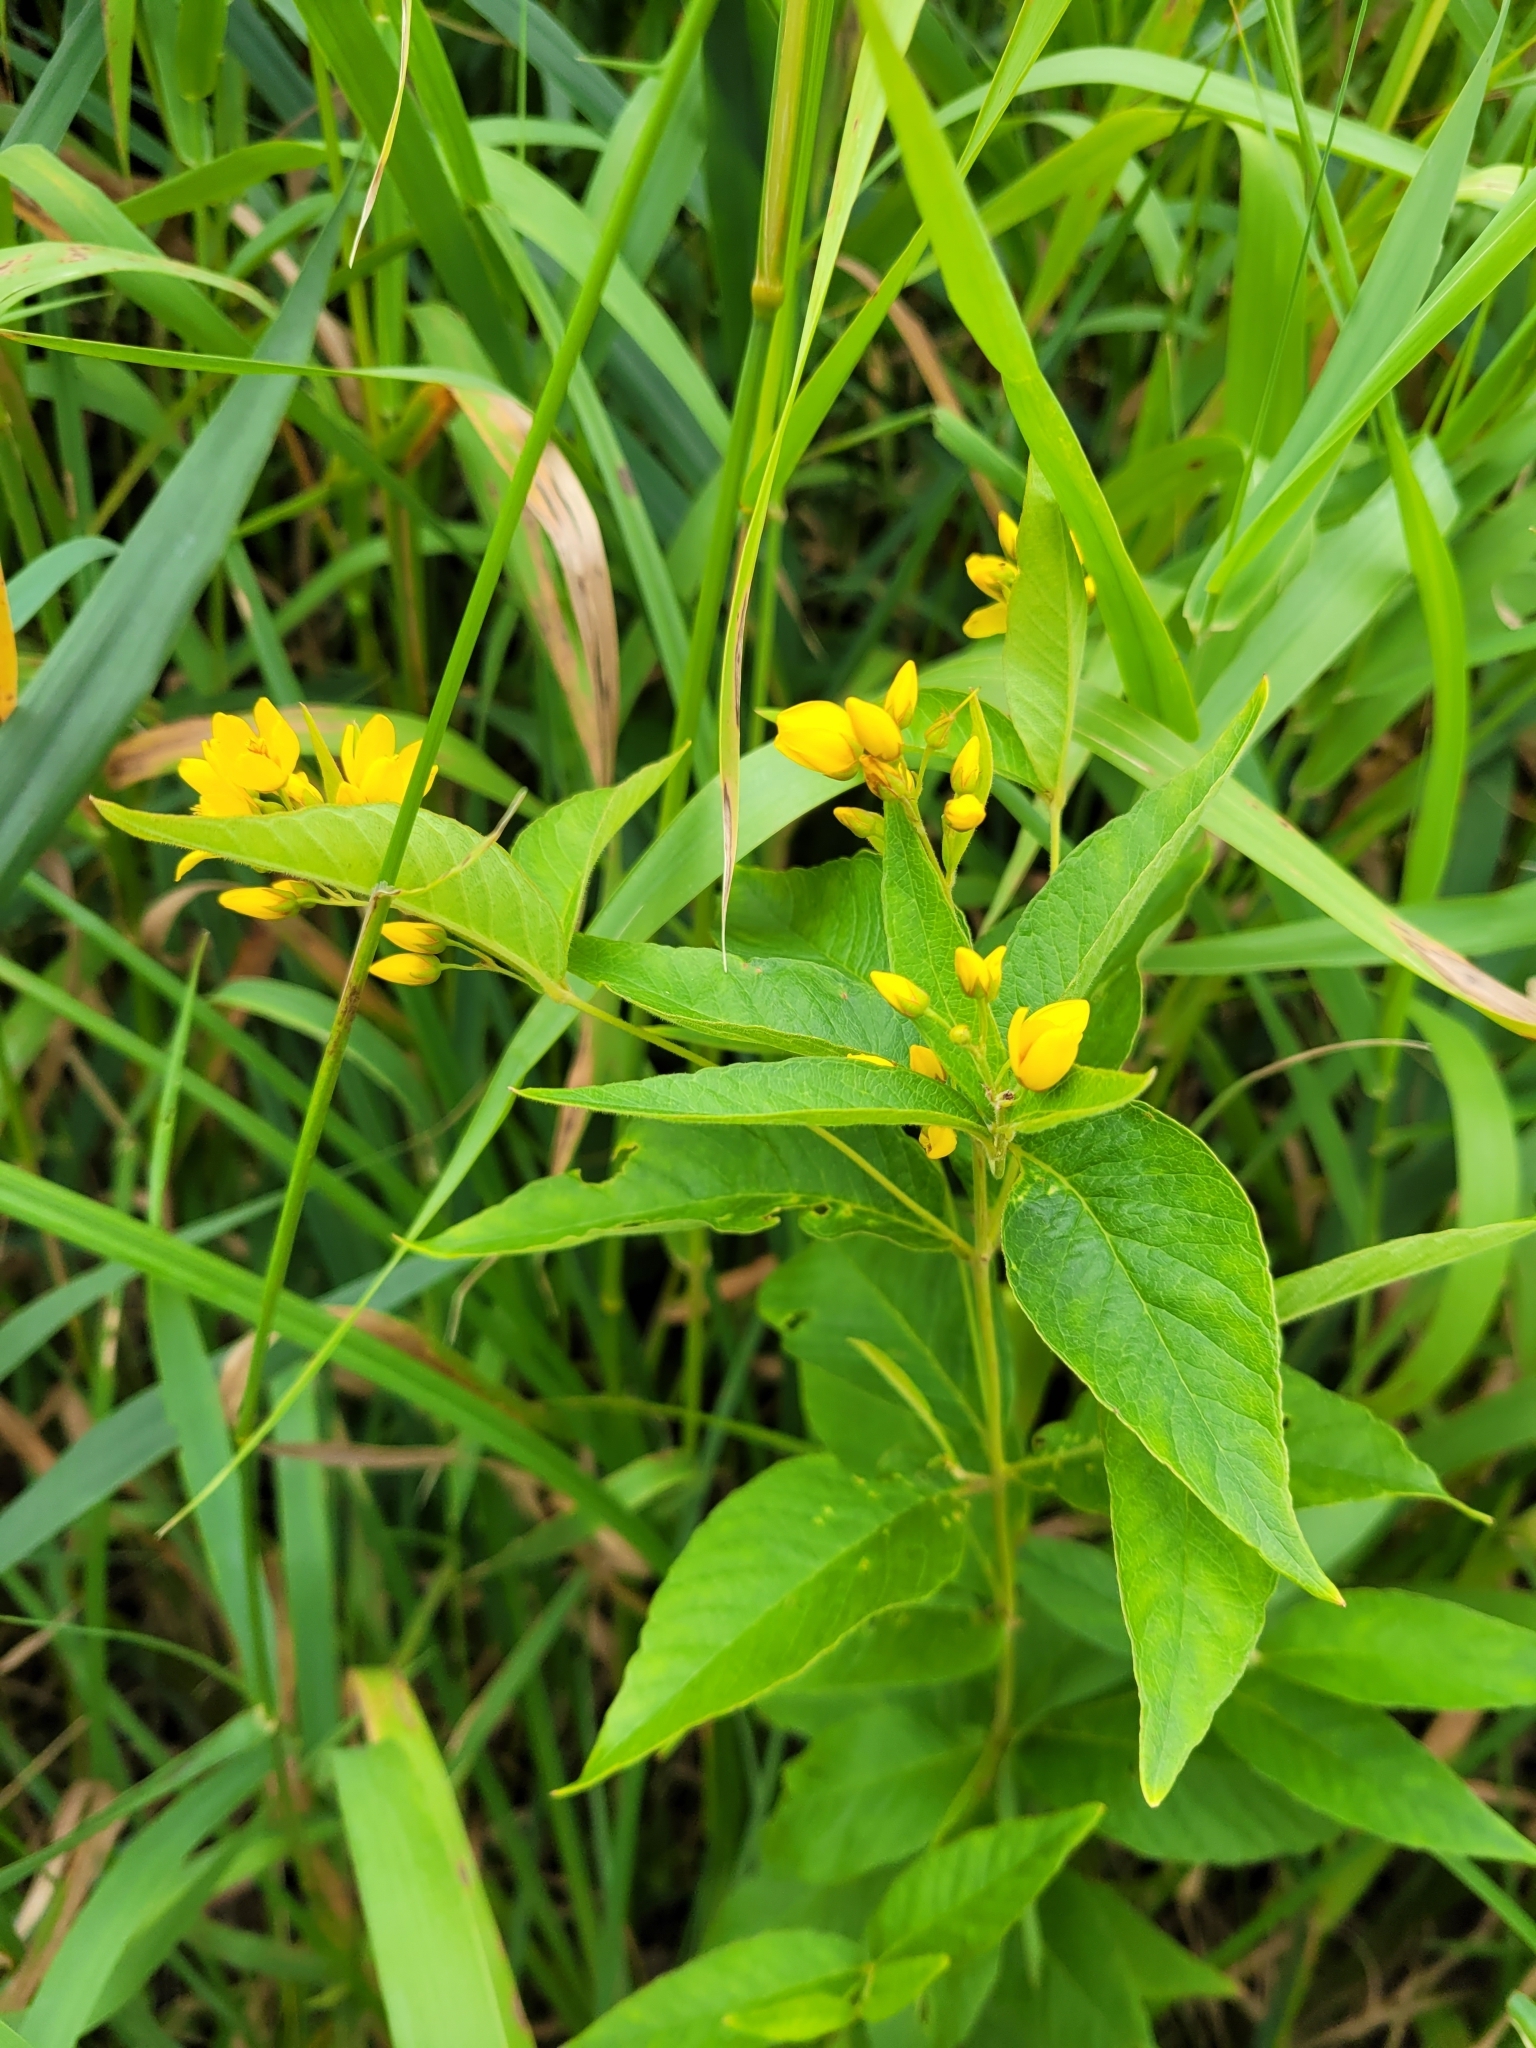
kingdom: Plantae
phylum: Tracheophyta
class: Magnoliopsida
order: Ericales
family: Primulaceae
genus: Lysimachia
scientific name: Lysimachia vulgaris
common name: Yellow loosestrife
